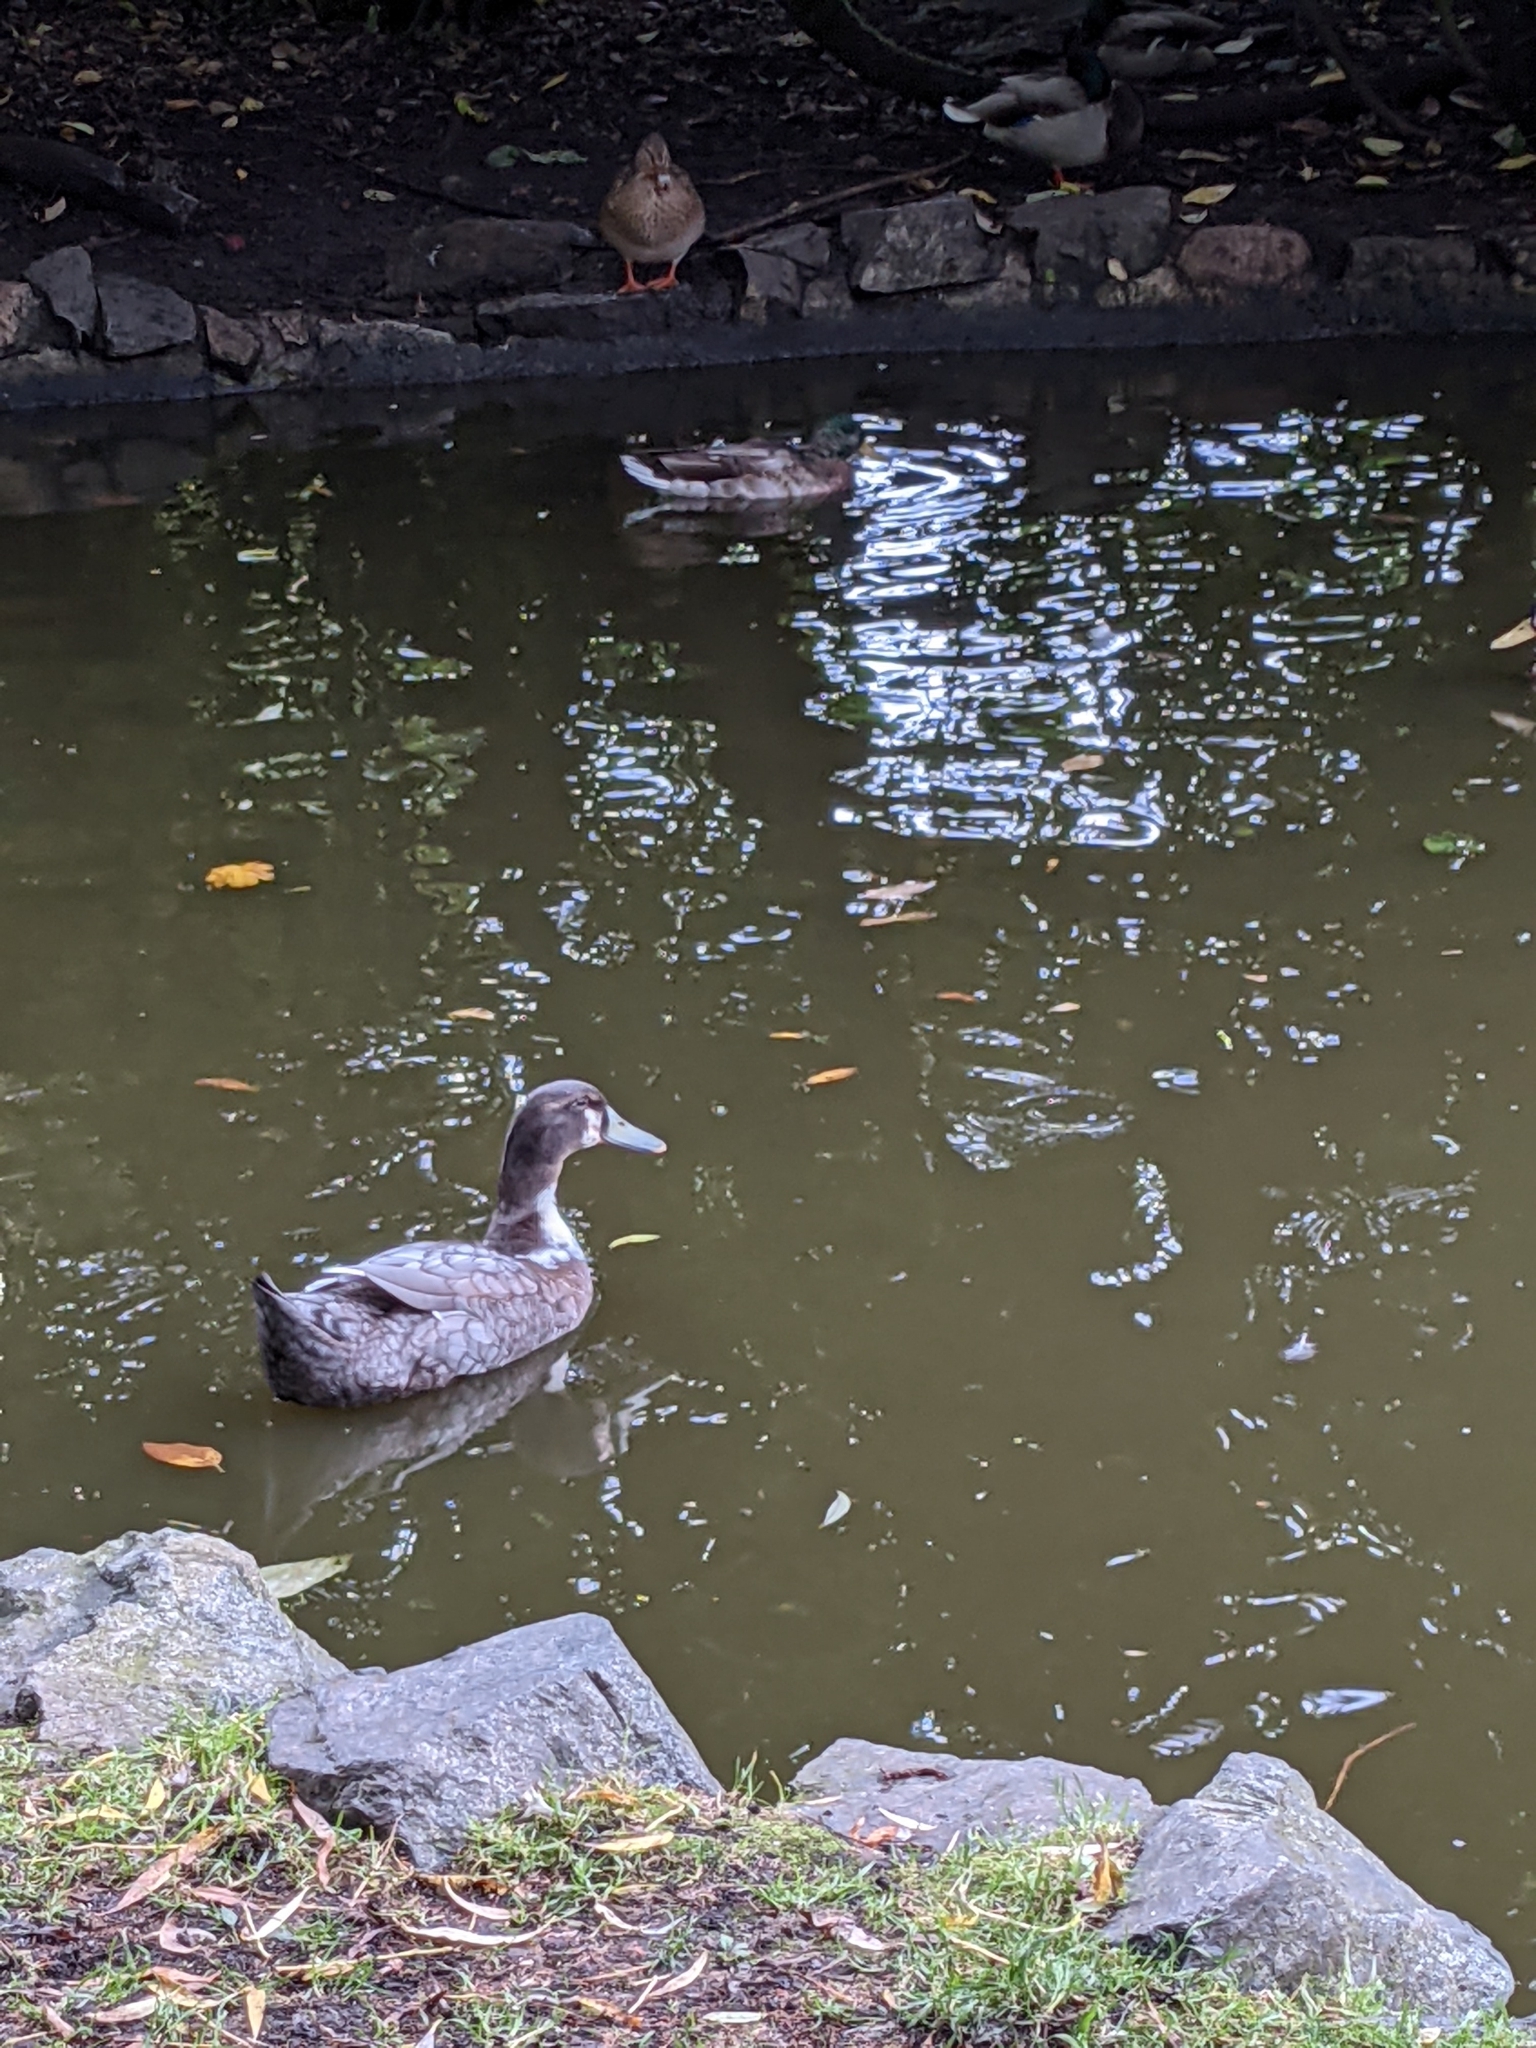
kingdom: Animalia
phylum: Chordata
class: Aves
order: Anseriformes
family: Anatidae
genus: Anas
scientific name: Anas platyrhynchos
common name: Mallard
